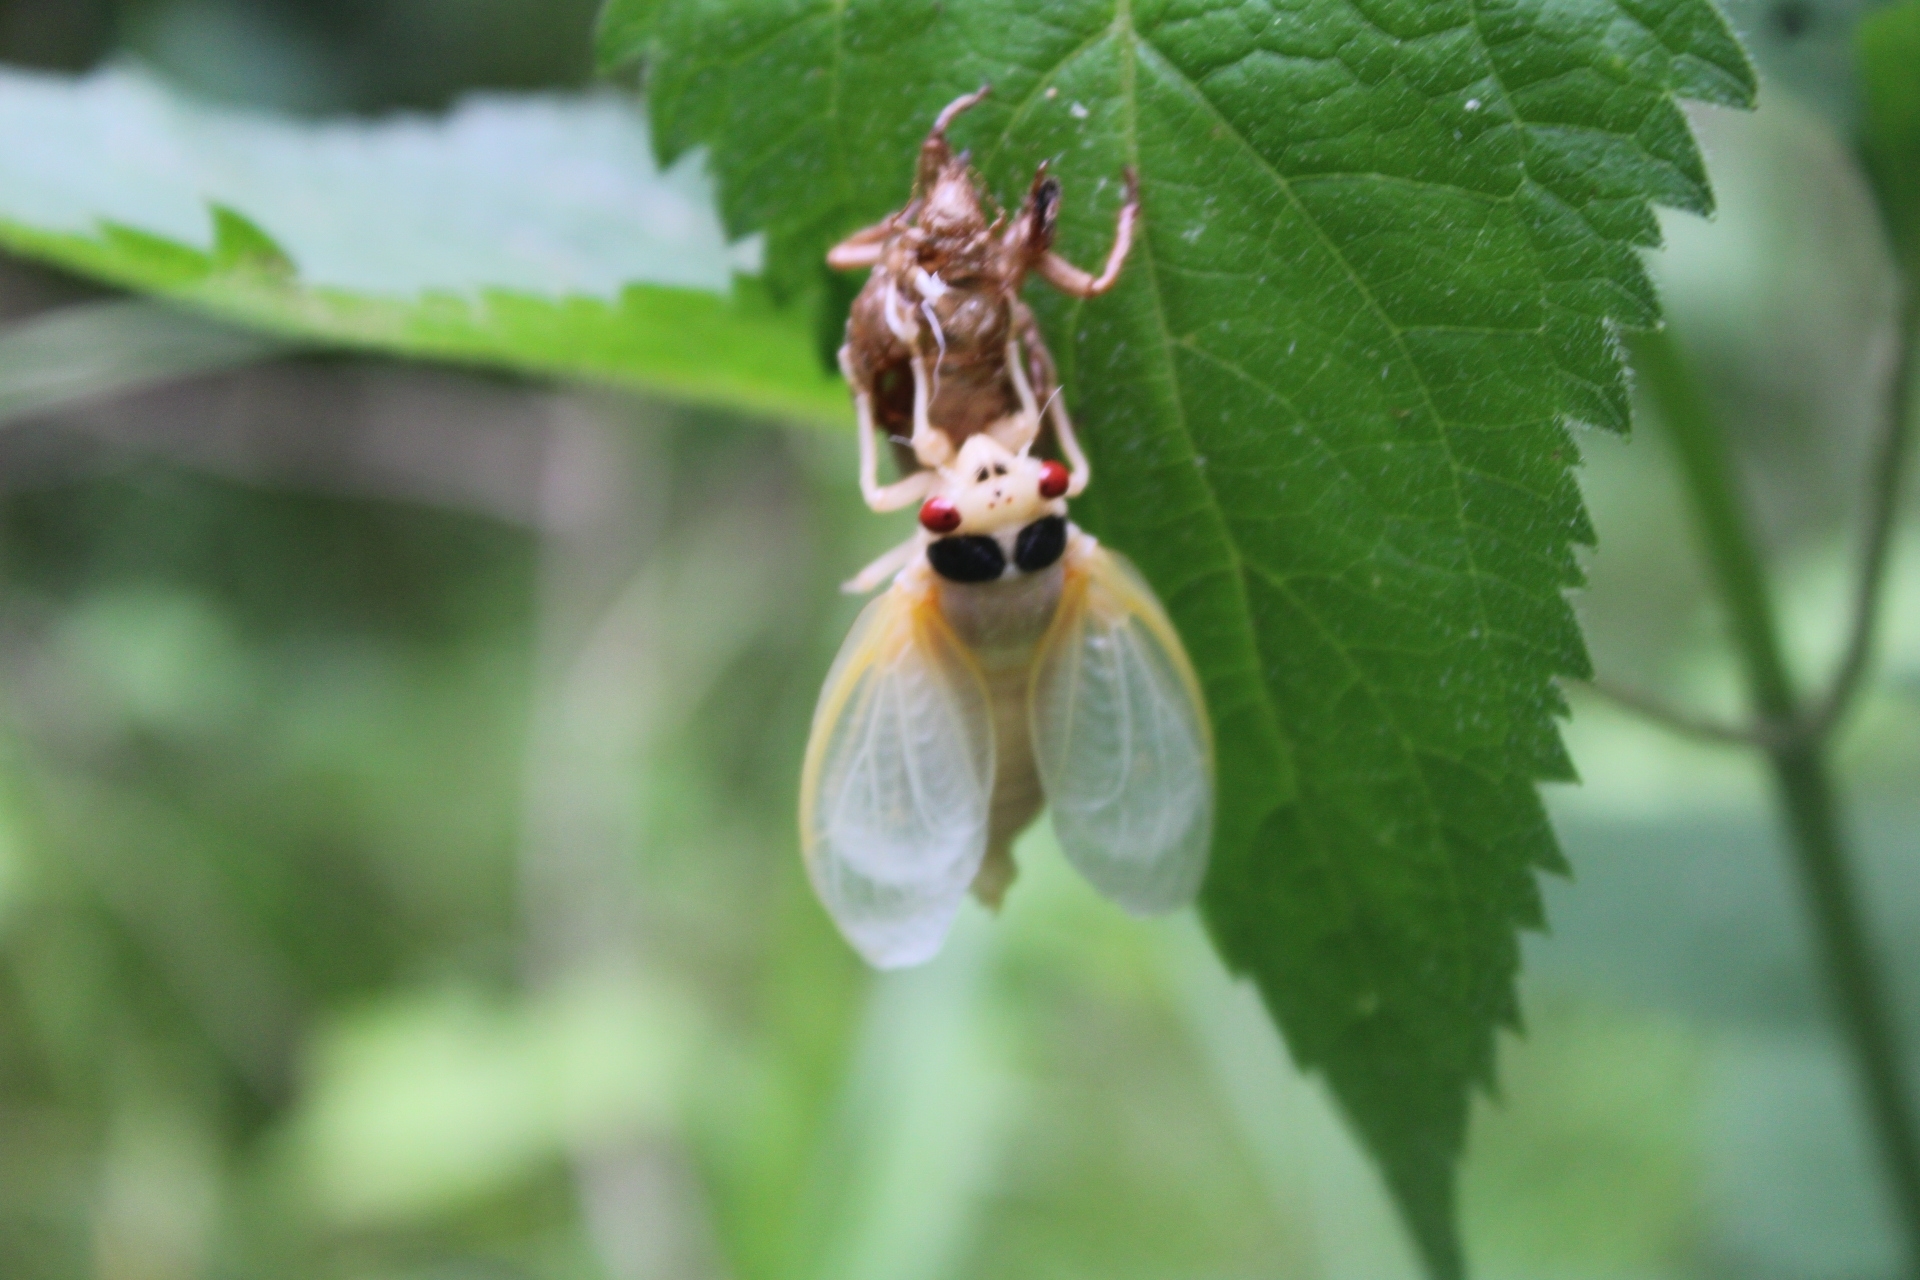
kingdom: Animalia
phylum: Arthropoda
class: Insecta
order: Hemiptera
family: Cicadidae
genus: Magicicada
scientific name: Magicicada
